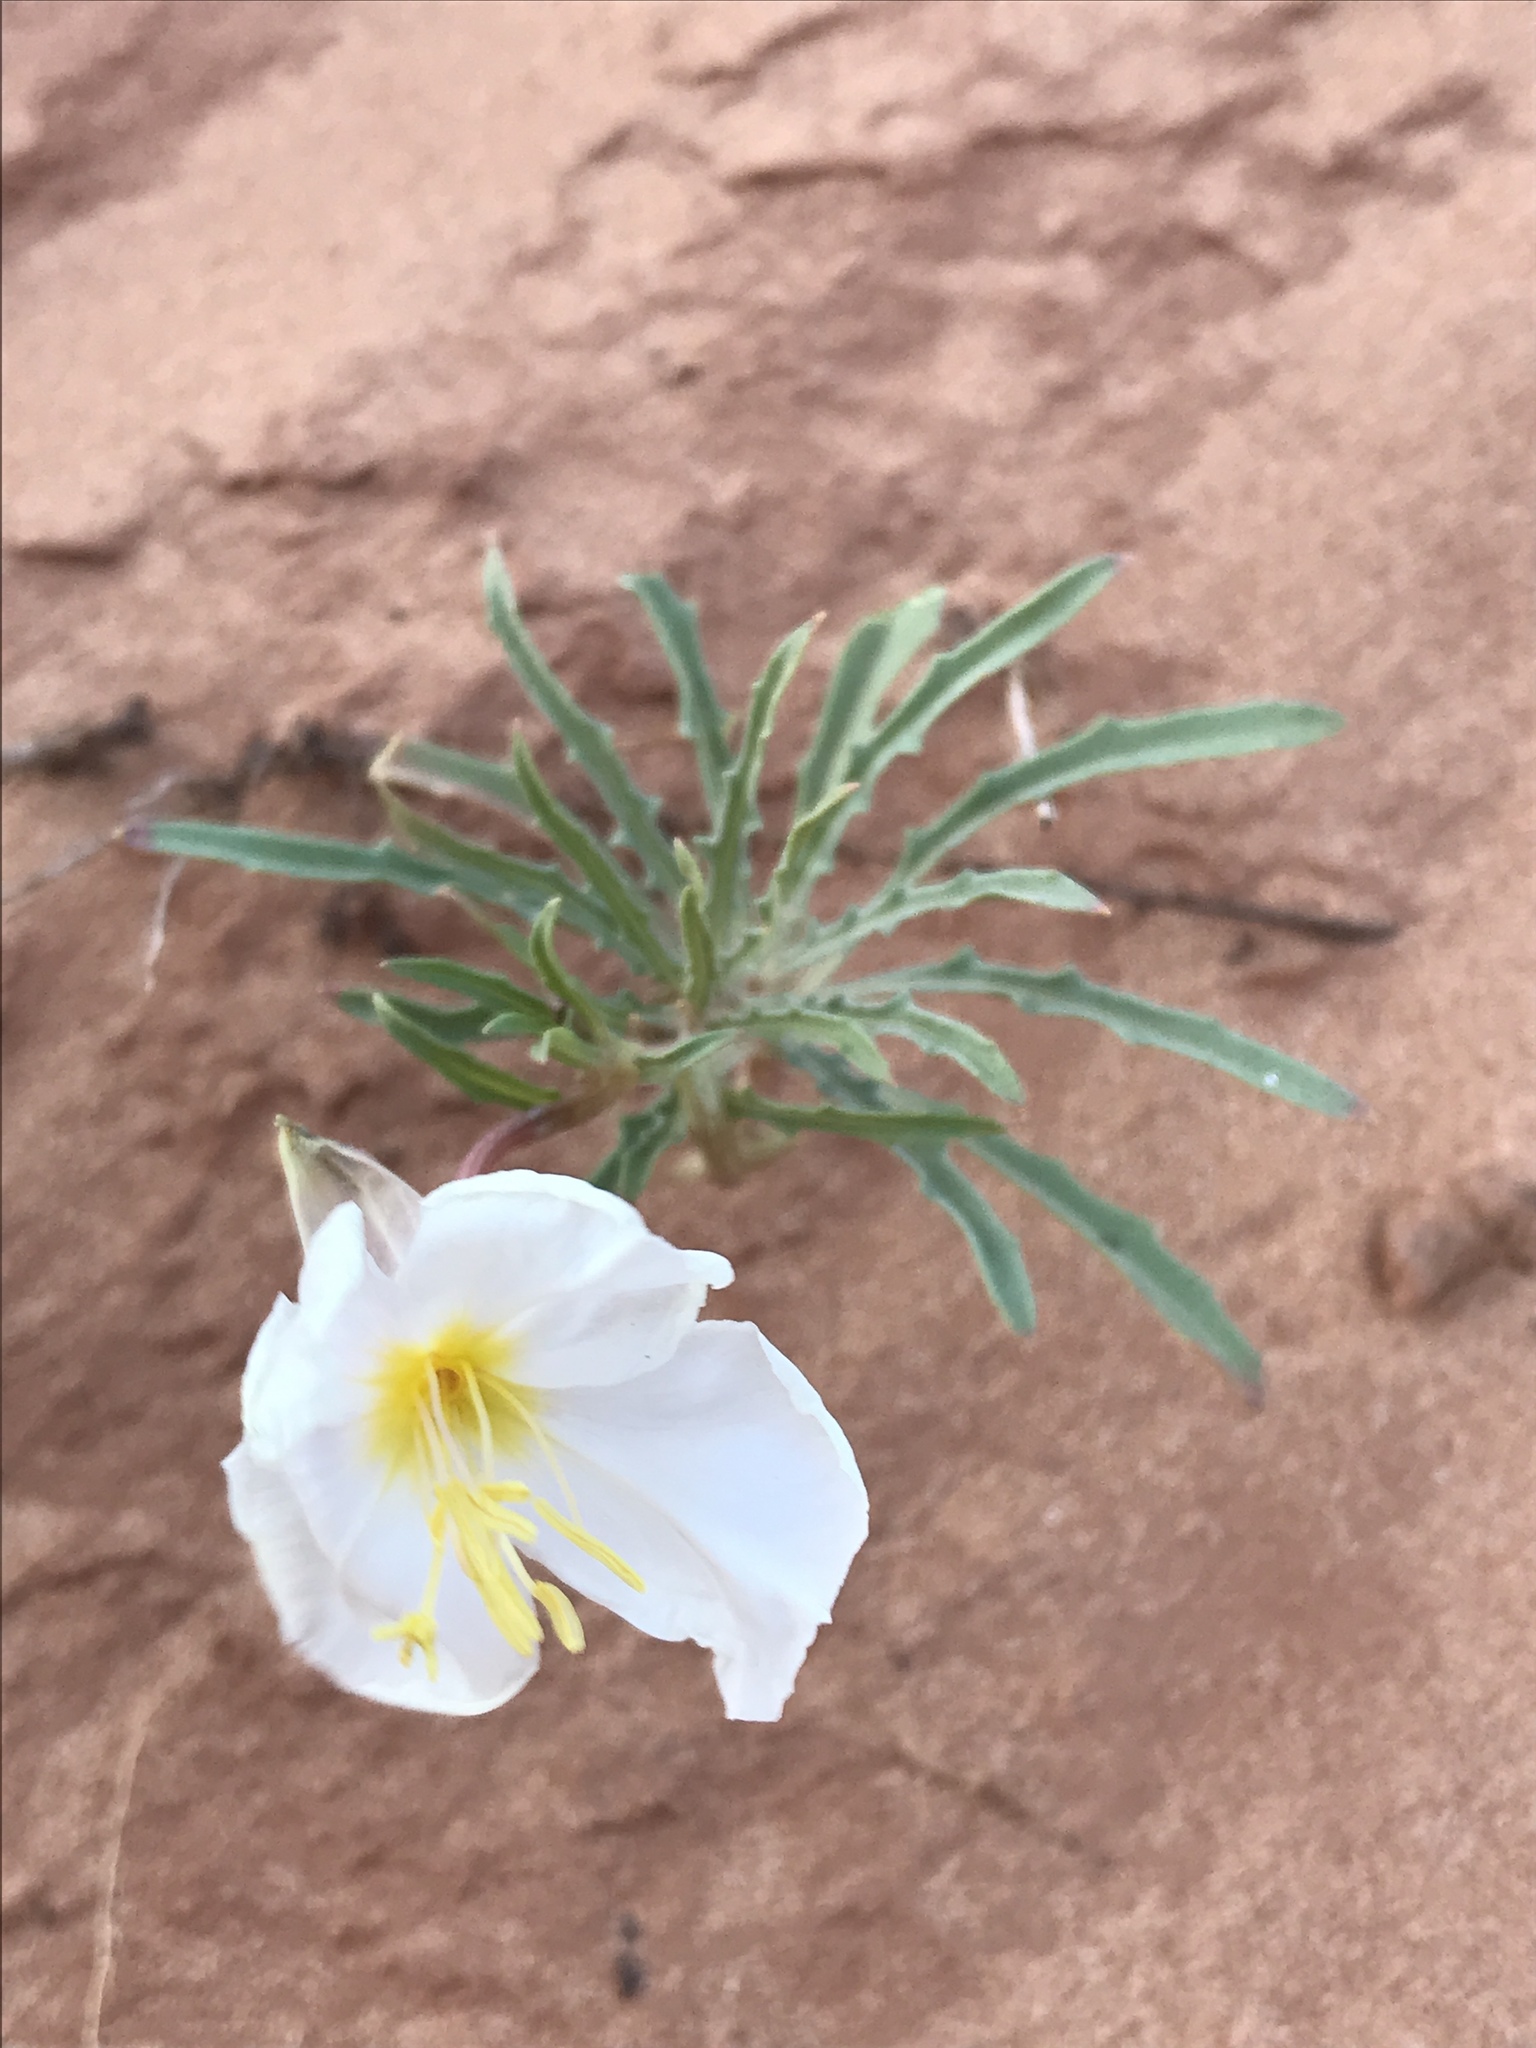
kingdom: Plantae
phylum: Tracheophyta
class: Magnoliopsida
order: Myrtales
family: Onagraceae
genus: Oenothera
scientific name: Oenothera pallida
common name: Pale evening-primrose
